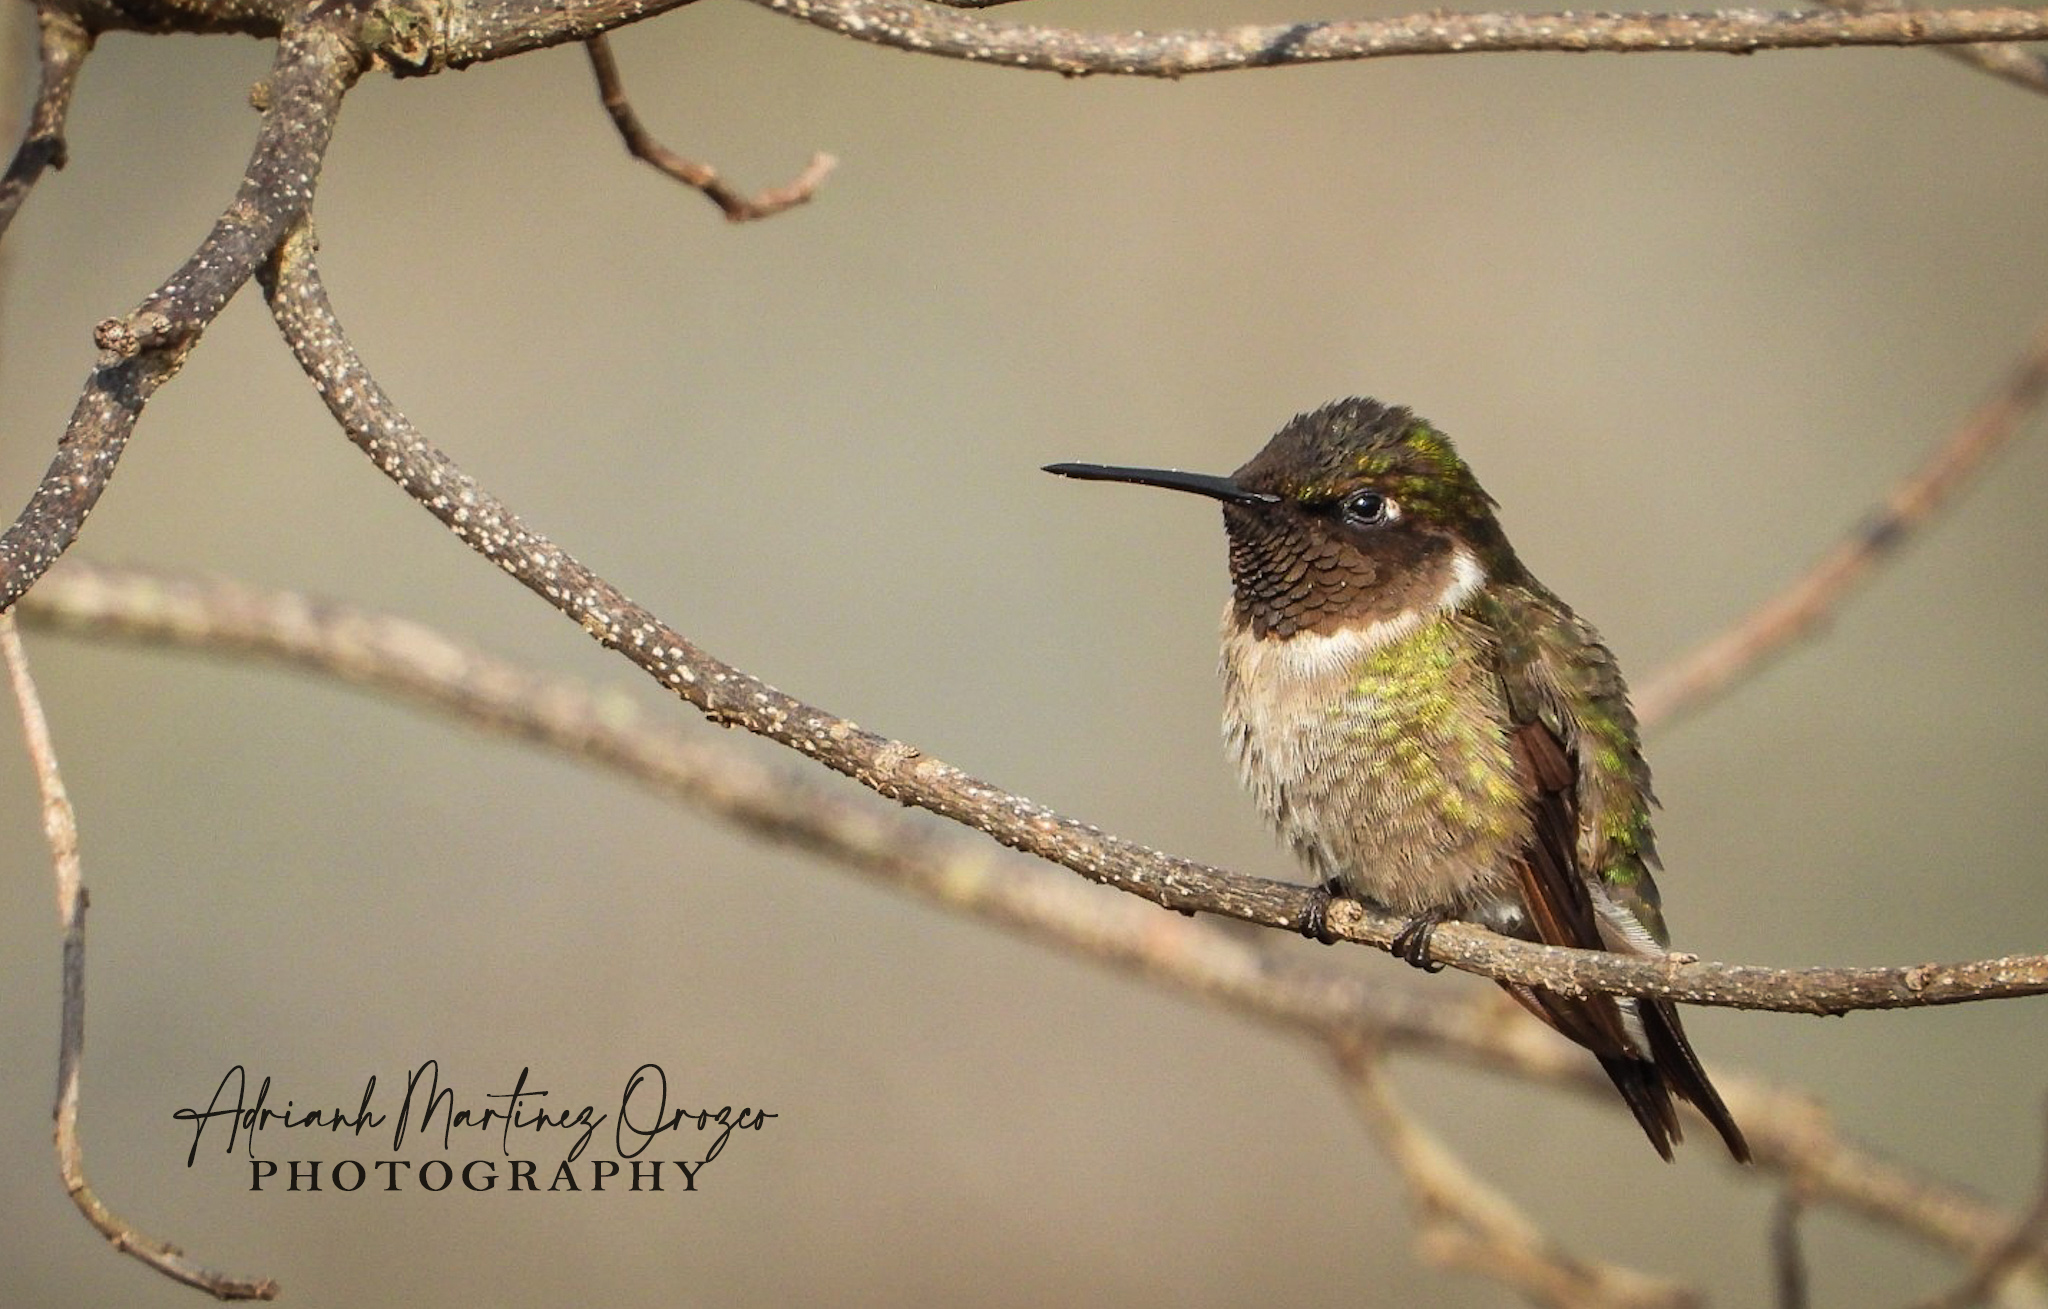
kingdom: Animalia
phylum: Chordata
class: Aves
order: Apodiformes
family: Trochilidae
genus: Archilochus
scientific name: Archilochus colubris
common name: Ruby-throated hummingbird
